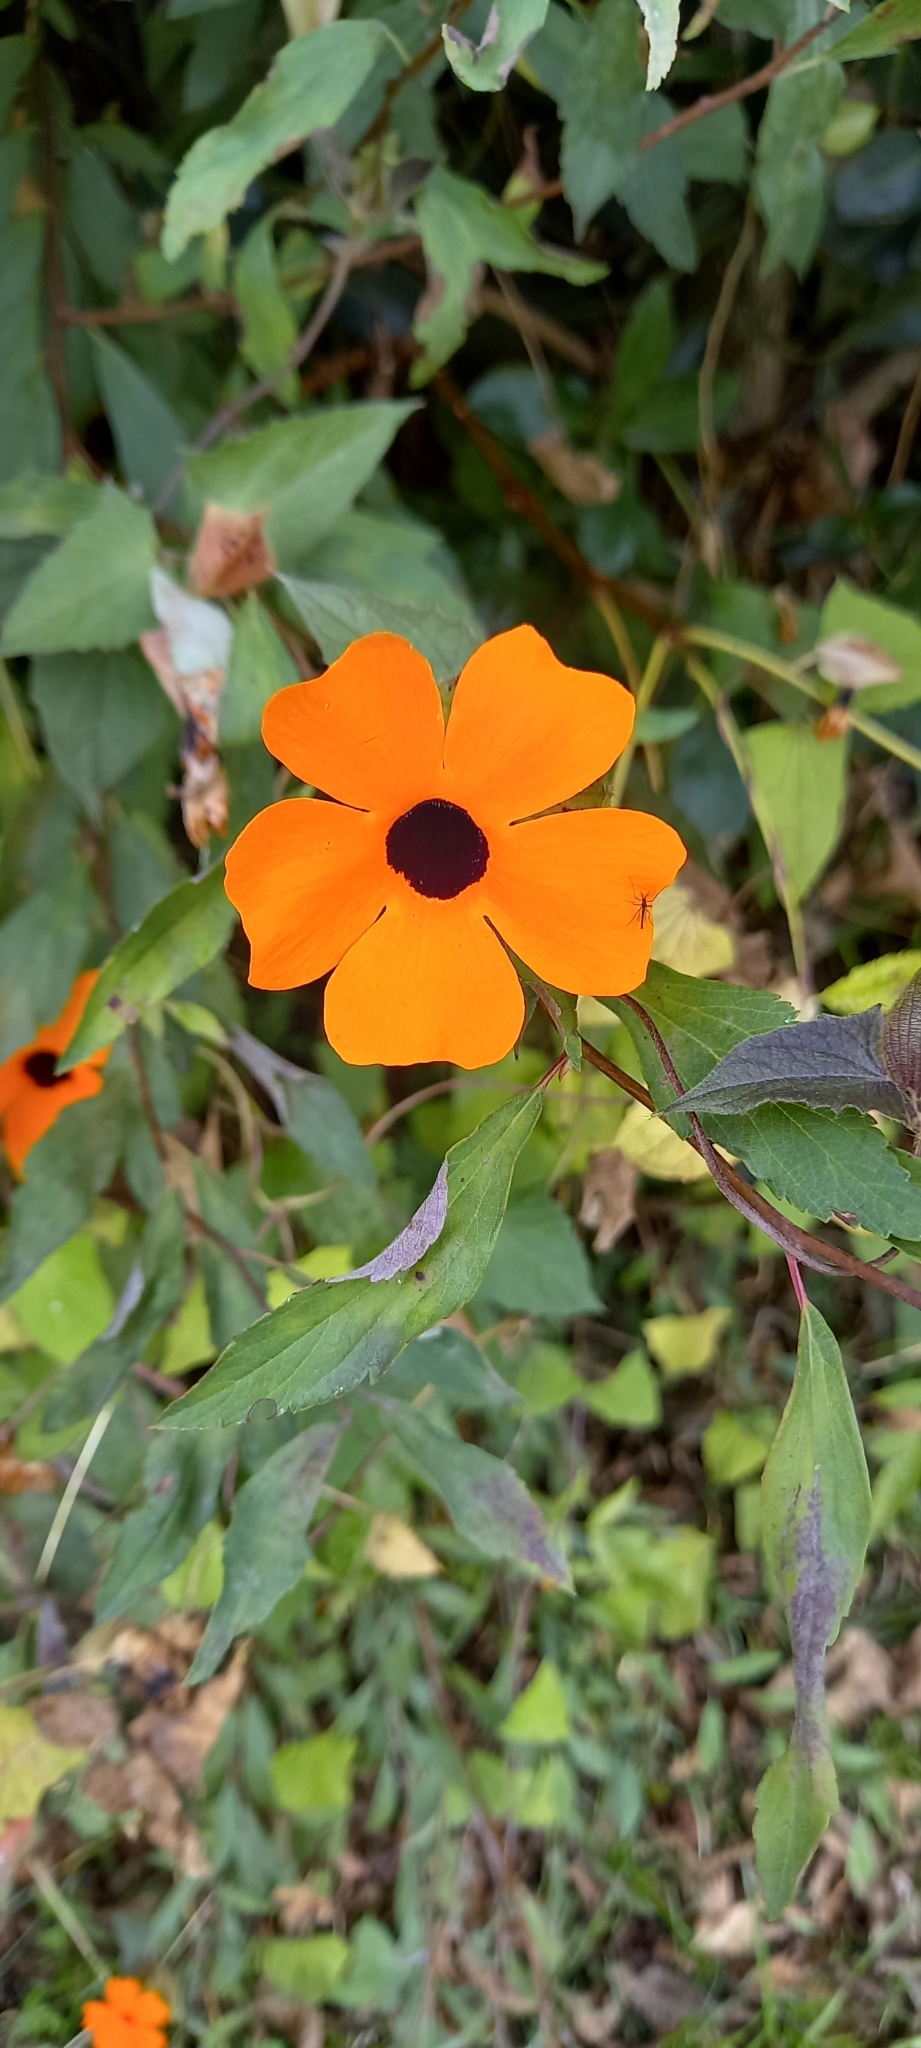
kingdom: Plantae
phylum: Tracheophyta
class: Magnoliopsida
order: Lamiales
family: Acanthaceae
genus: Thunbergia
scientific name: Thunbergia alata
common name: Blackeyed susan vine
